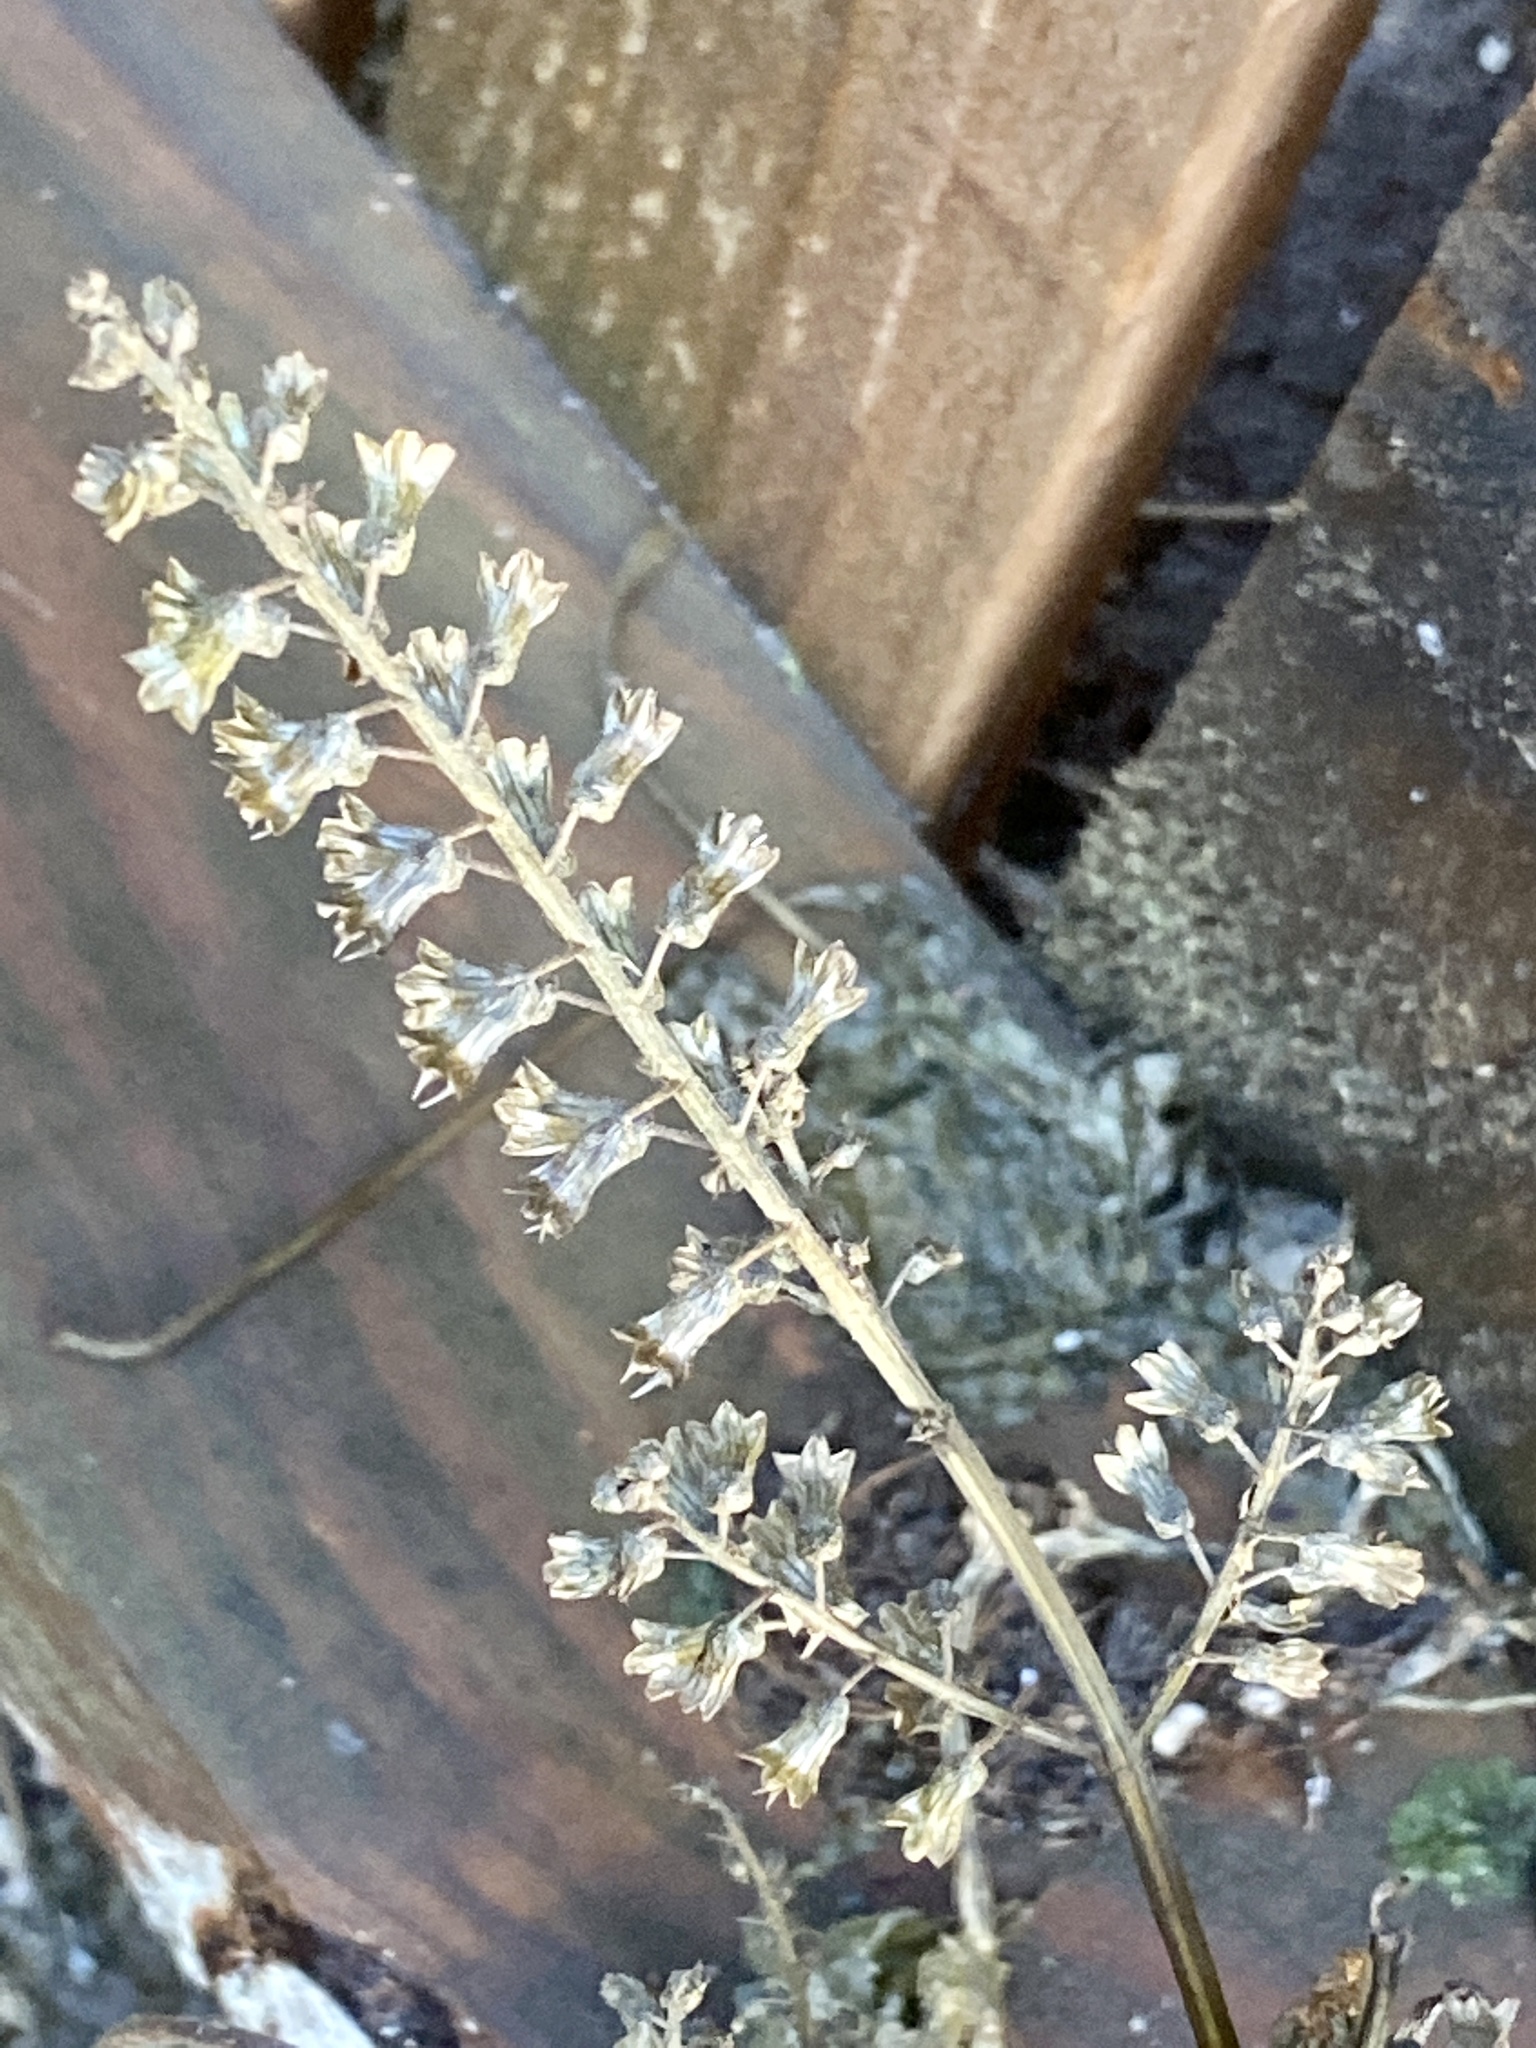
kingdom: Plantae
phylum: Tracheophyta
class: Magnoliopsida
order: Lamiales
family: Lamiaceae
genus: Perilla
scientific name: Perilla frutescens
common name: Perilla
